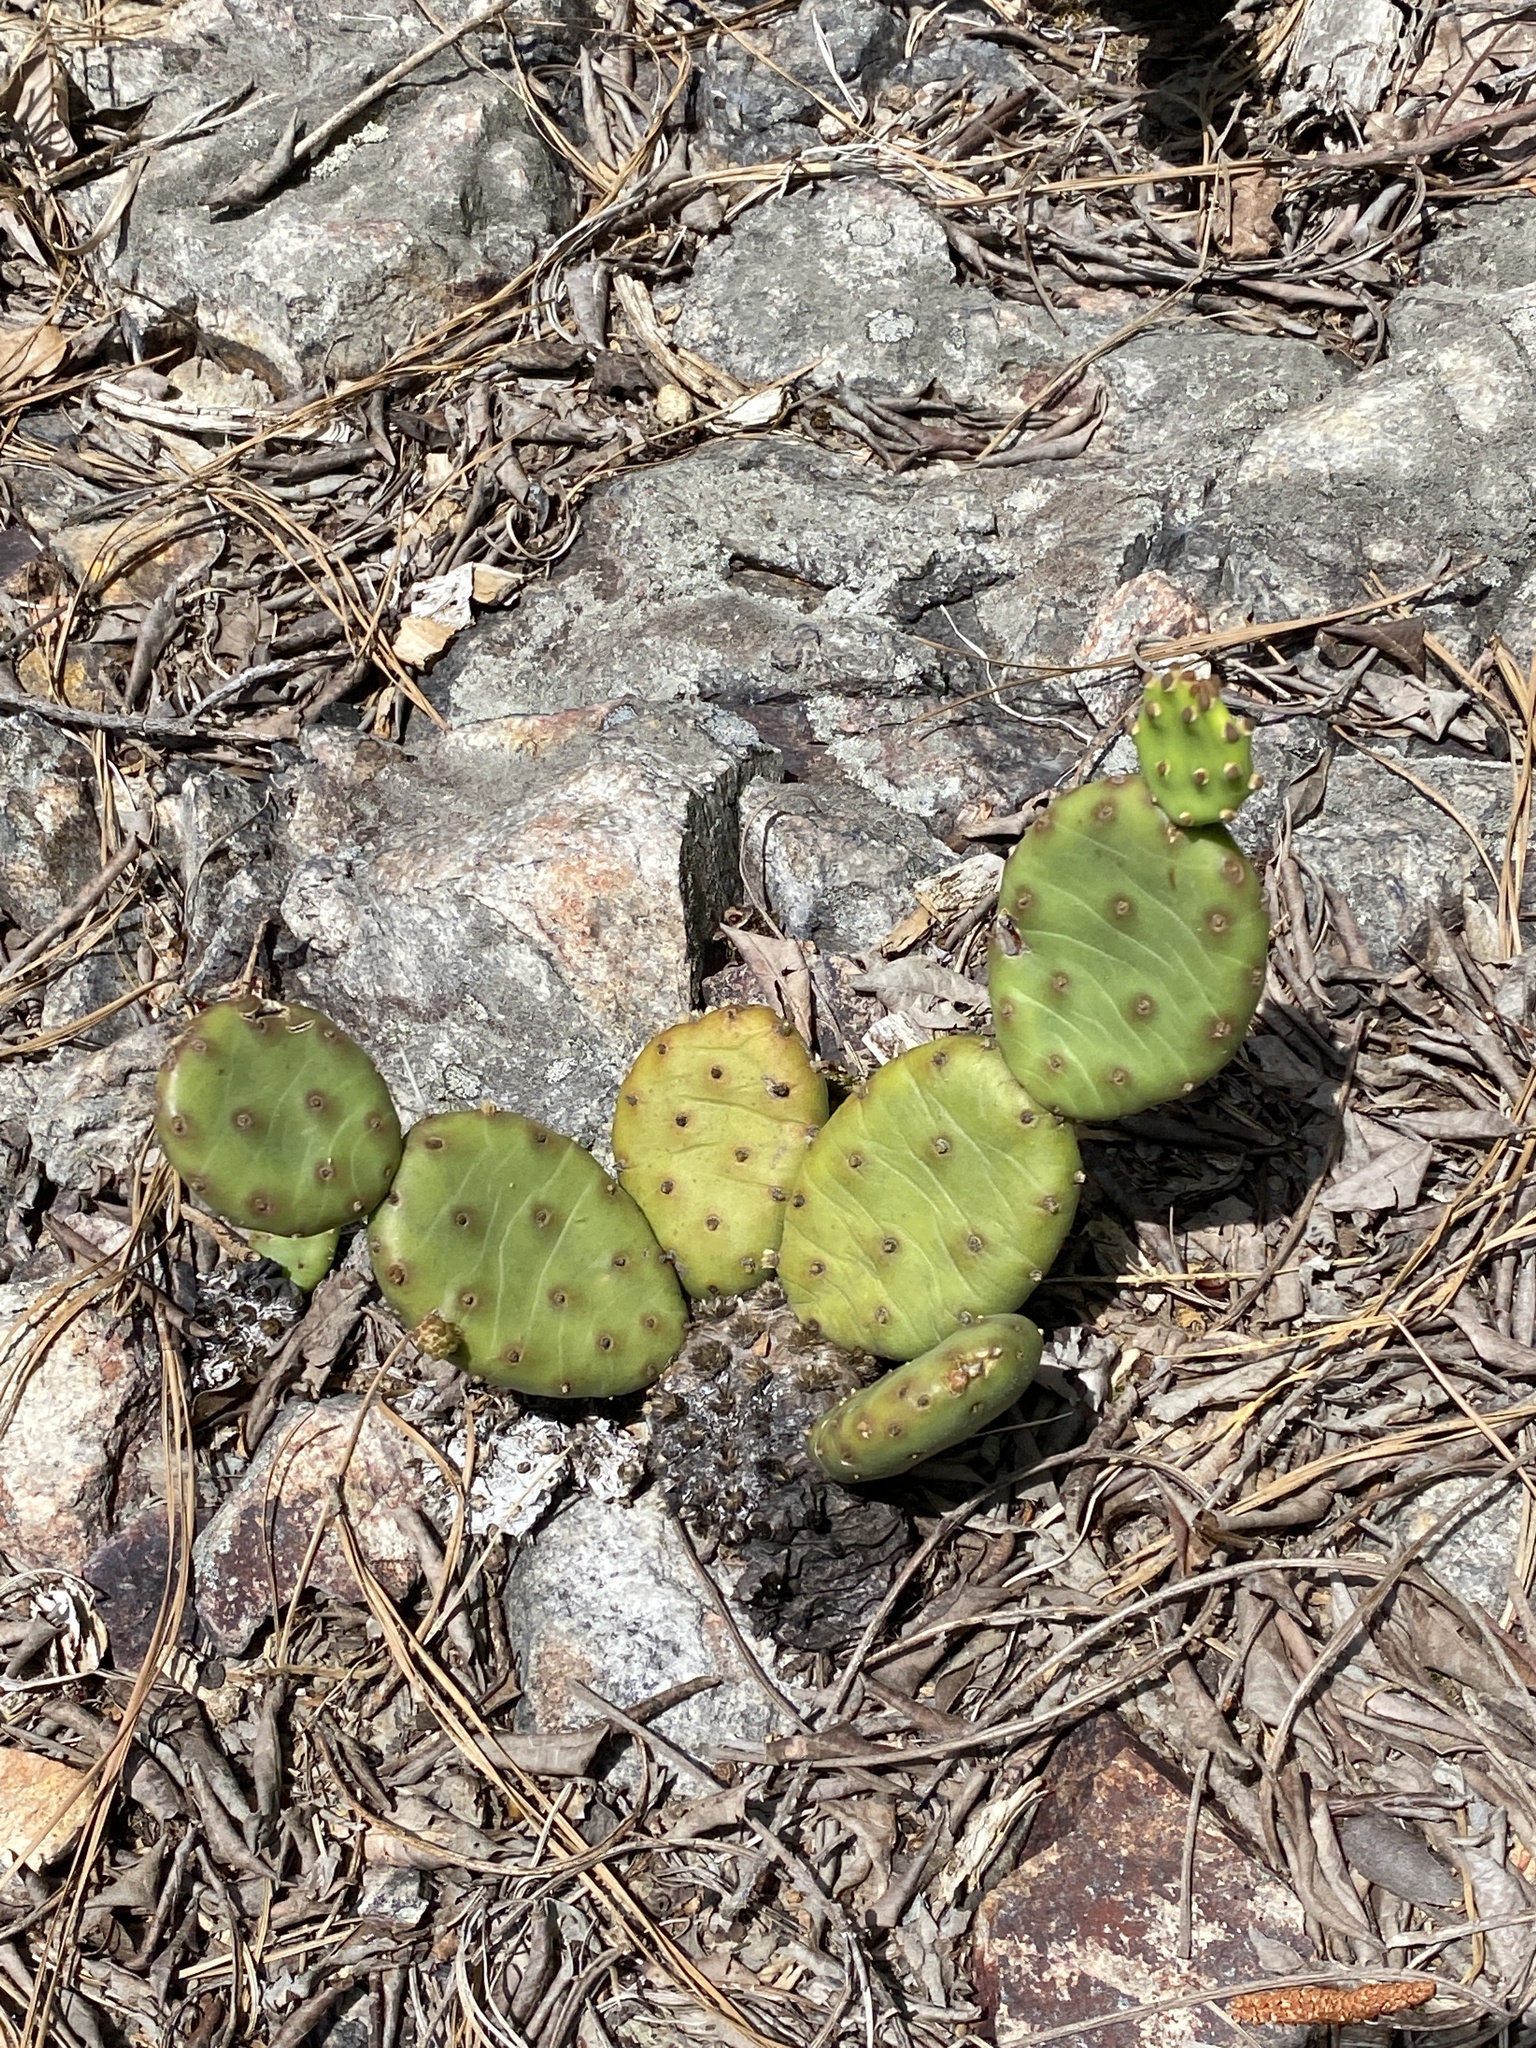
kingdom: Plantae
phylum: Tracheophyta
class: Magnoliopsida
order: Caryophyllales
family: Cactaceae
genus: Opuntia
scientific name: Opuntia mesacantha
